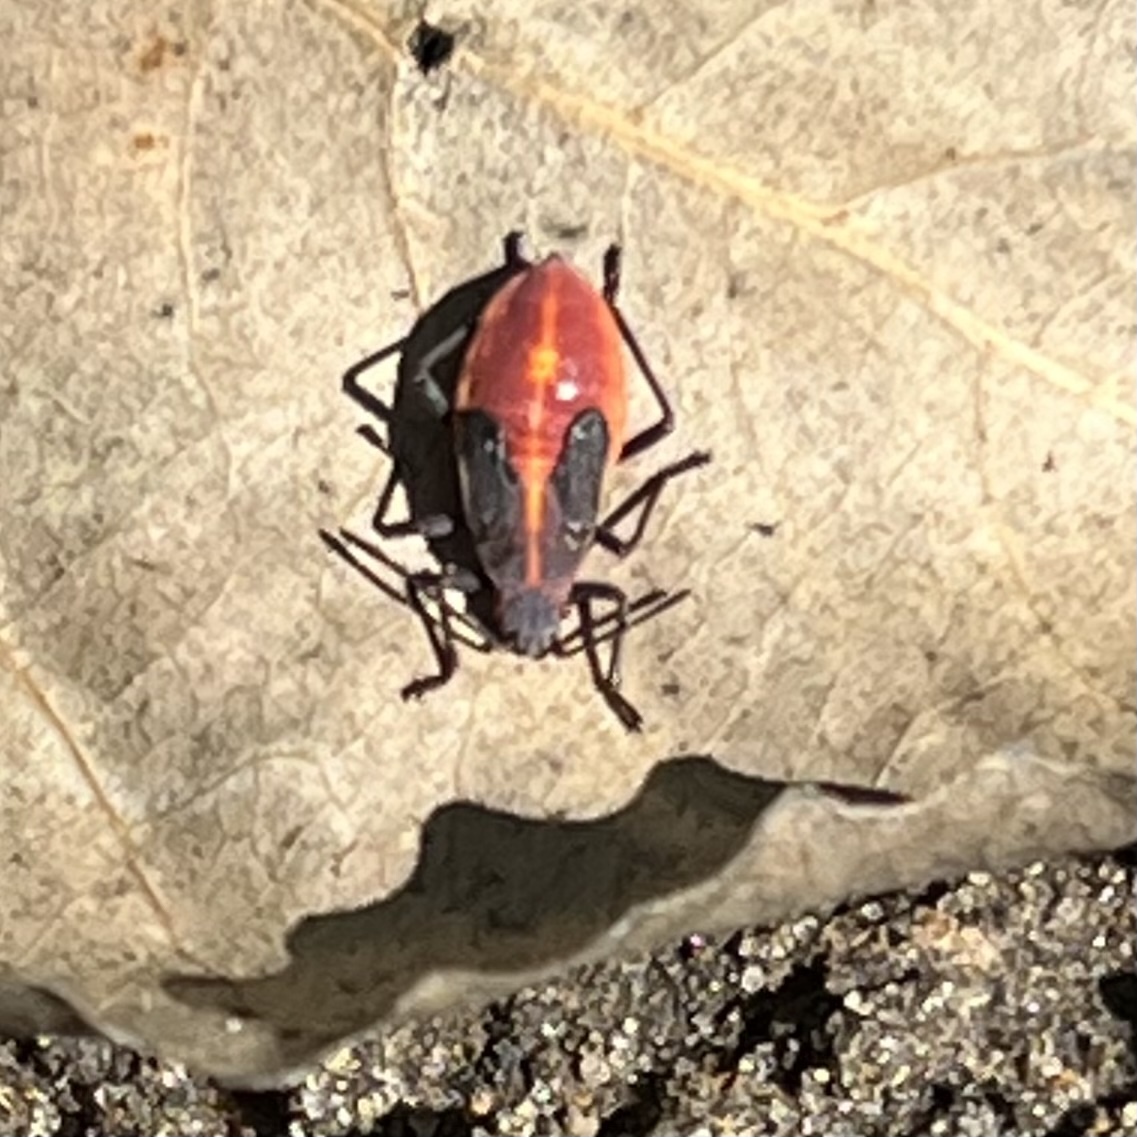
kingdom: Animalia
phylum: Arthropoda
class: Insecta
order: Hemiptera
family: Rhopalidae
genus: Boisea
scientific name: Boisea trivittata
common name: Boxelder bug
